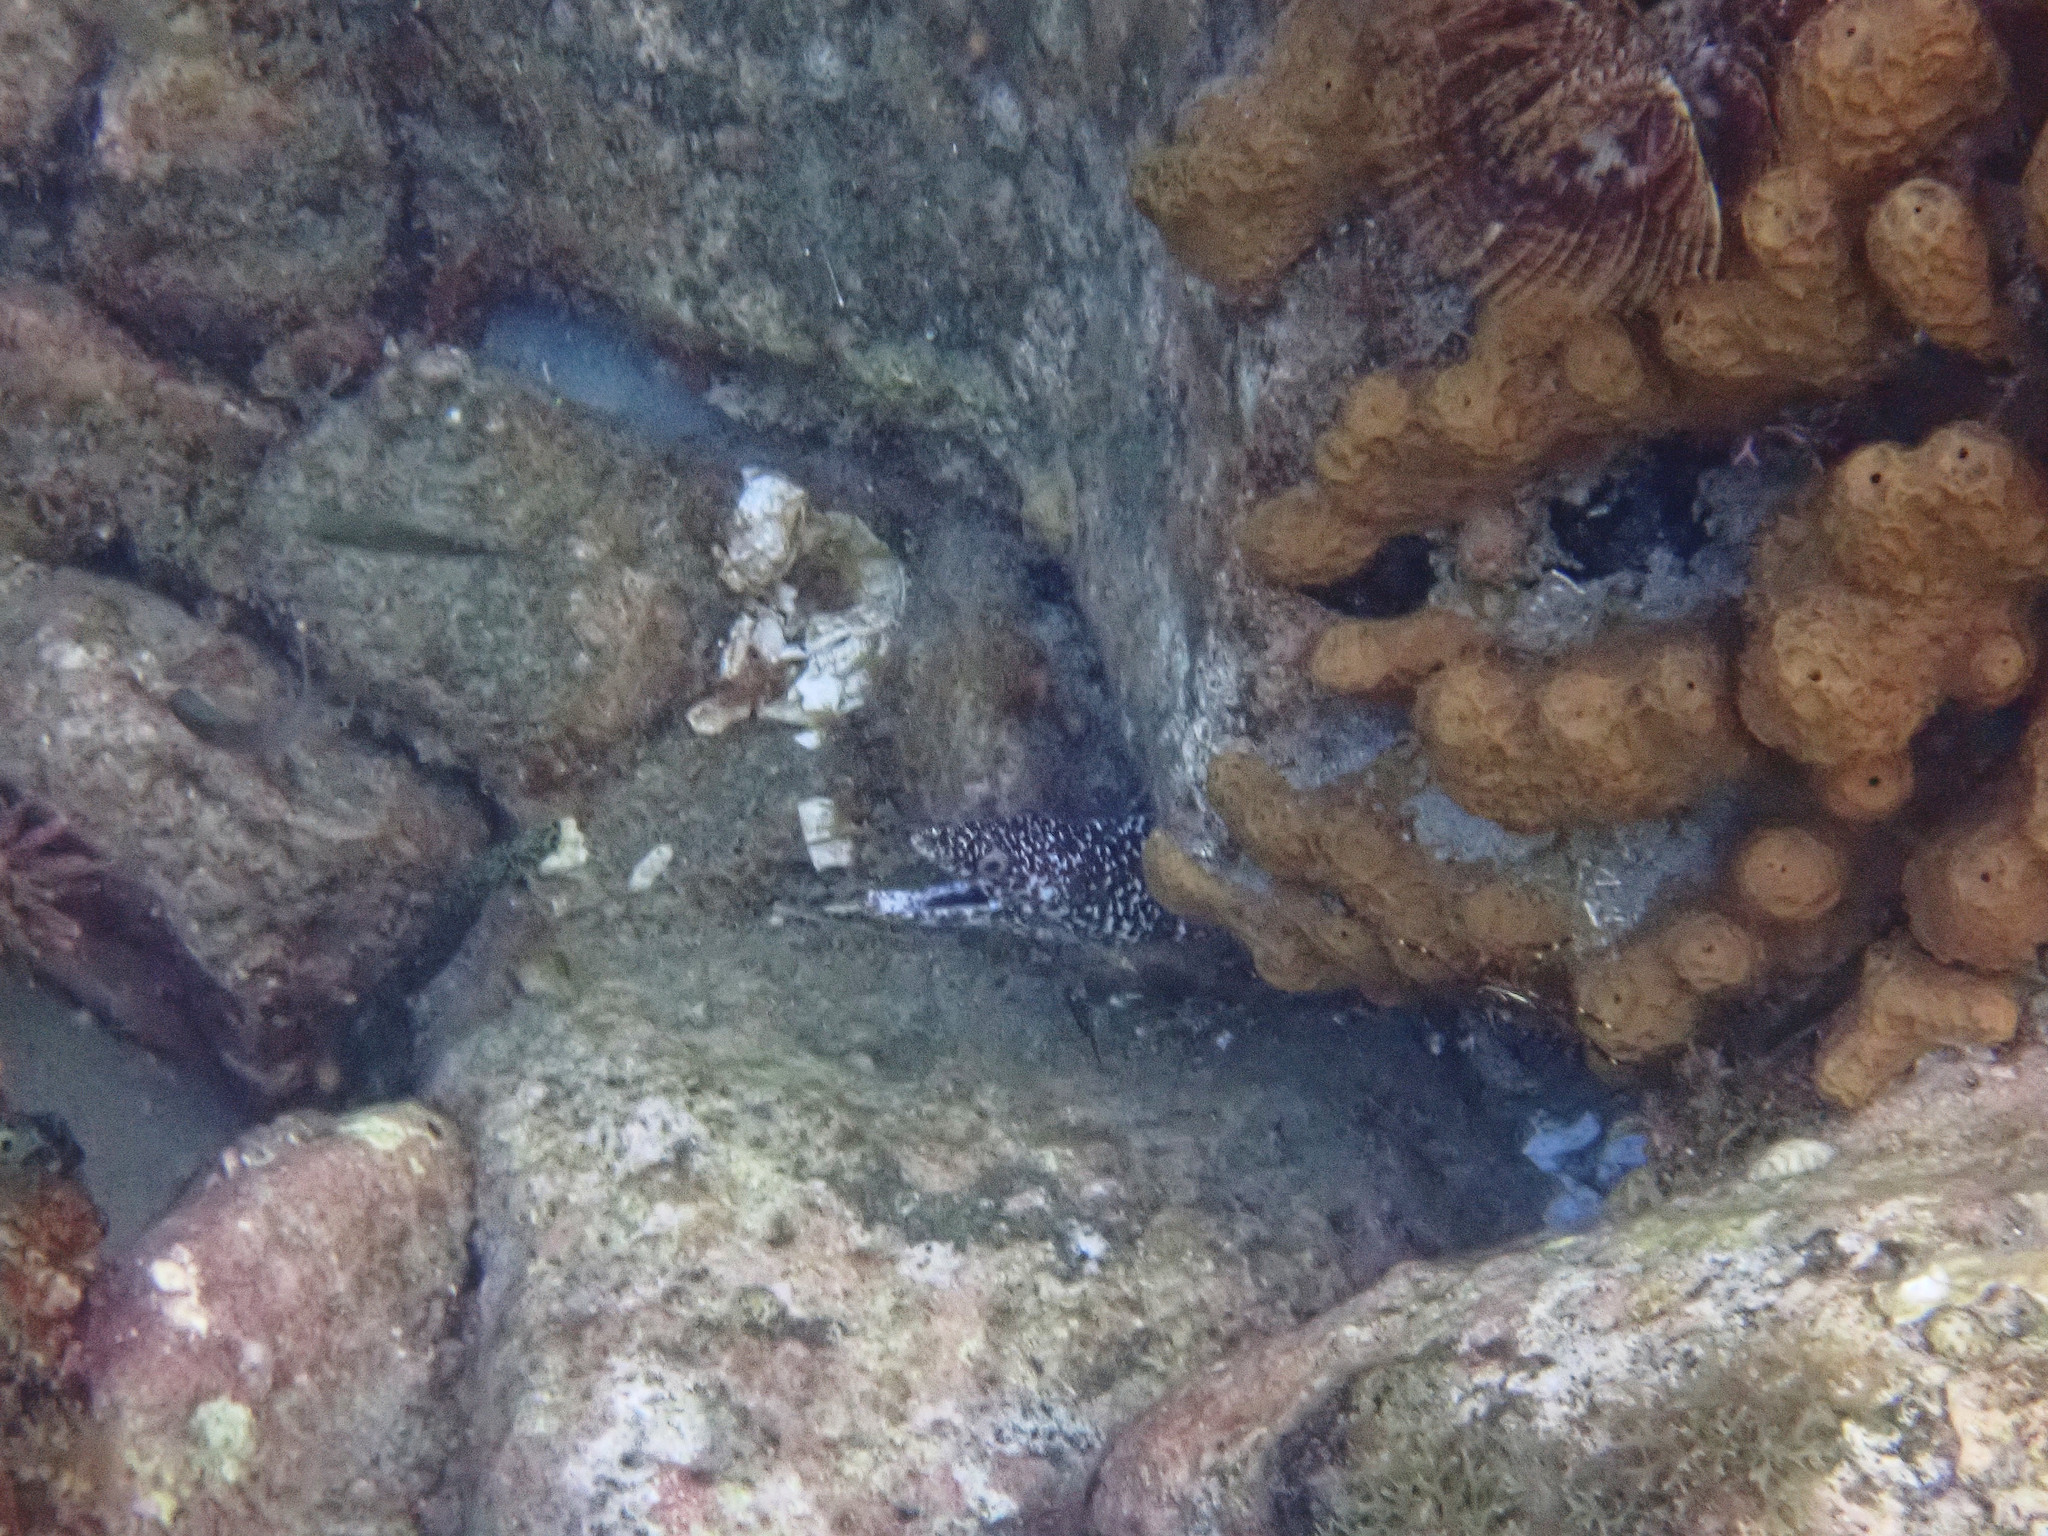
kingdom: Animalia
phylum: Chordata
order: Anguilliformes
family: Muraenidae
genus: Gymnothorax
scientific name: Gymnothorax moringa
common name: Spotted moray
